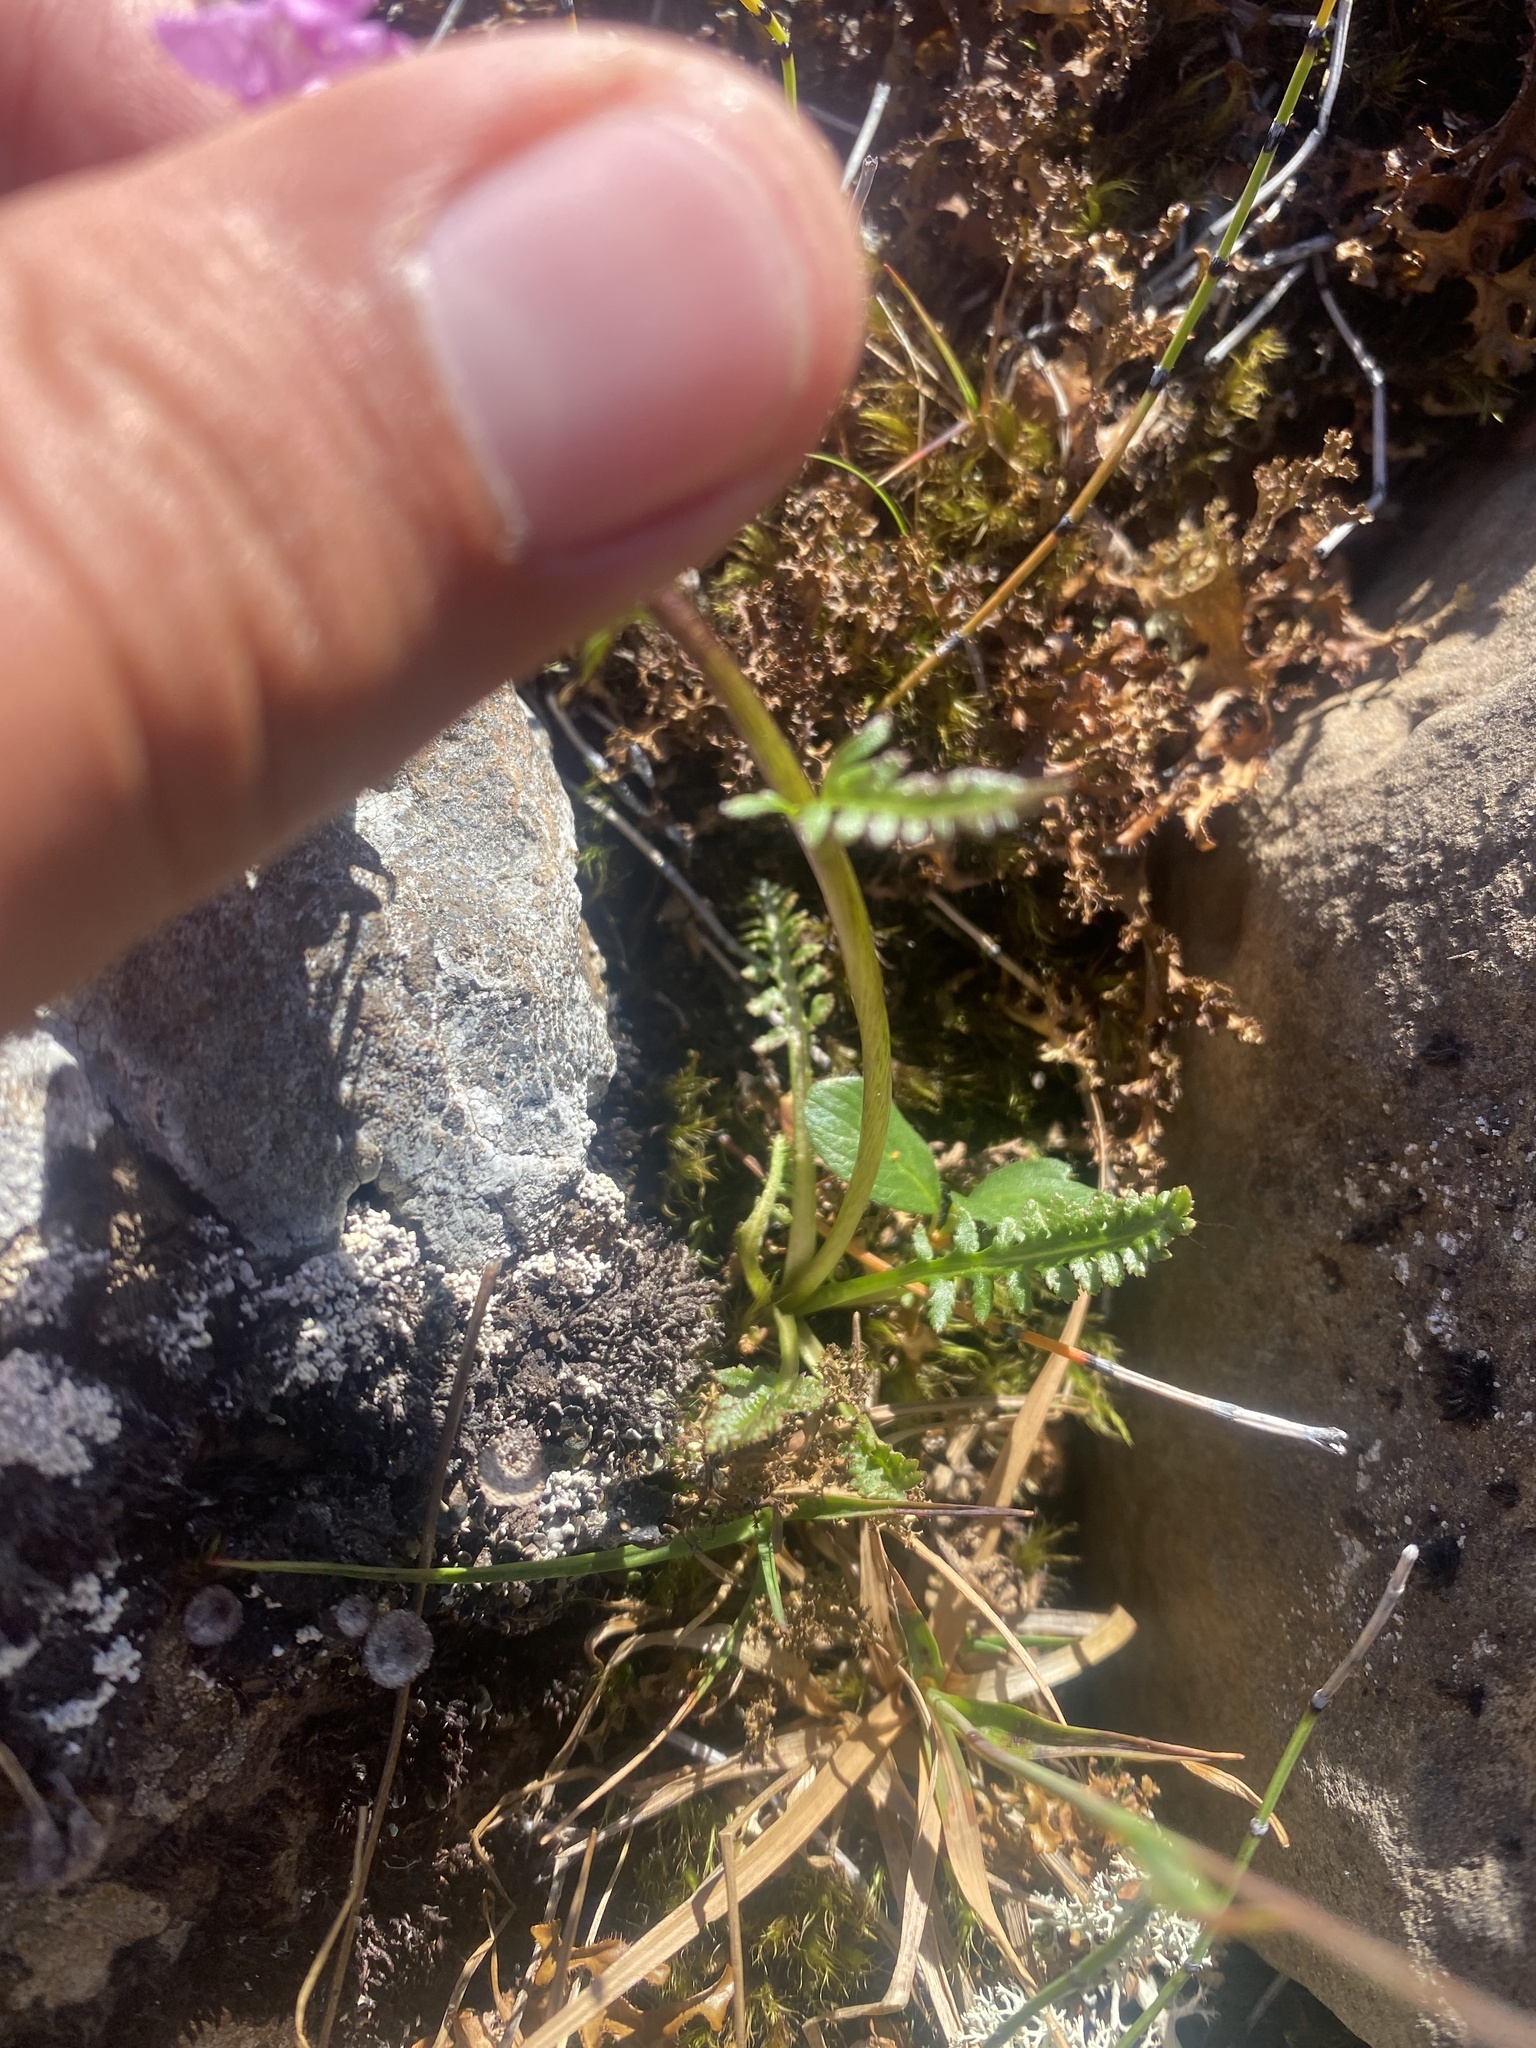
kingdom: Plantae
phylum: Tracheophyta
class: Magnoliopsida
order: Lamiales
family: Orobanchaceae
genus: Pedicularis
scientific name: Pedicularis interior
